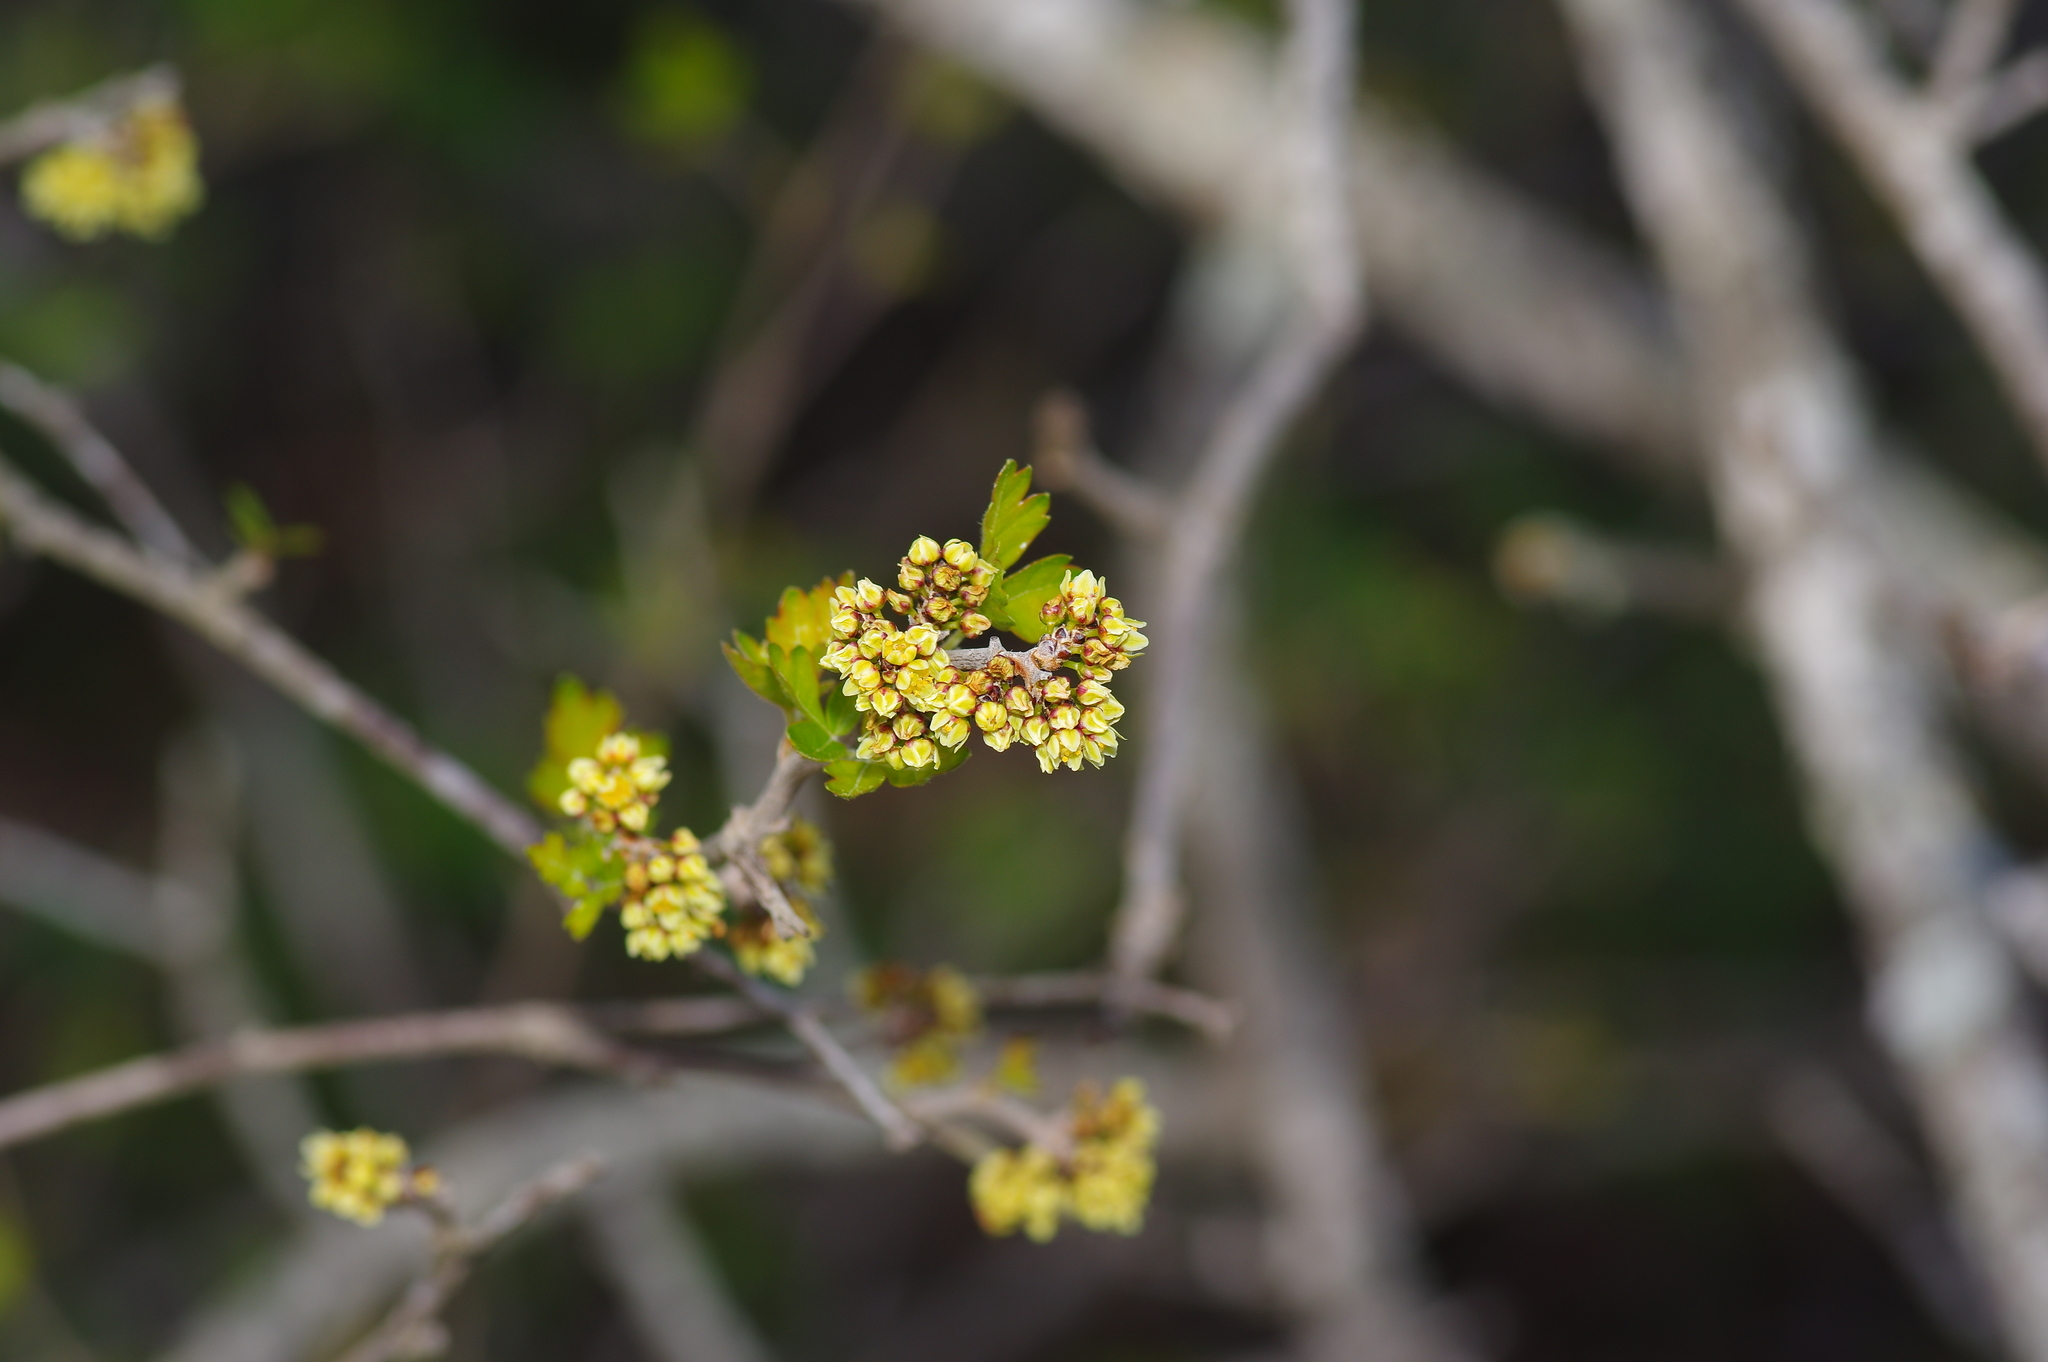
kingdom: Plantae
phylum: Tracheophyta
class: Magnoliopsida
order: Sapindales
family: Anacardiaceae
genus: Rhus
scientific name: Rhus aromatica
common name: Aromatic sumac
